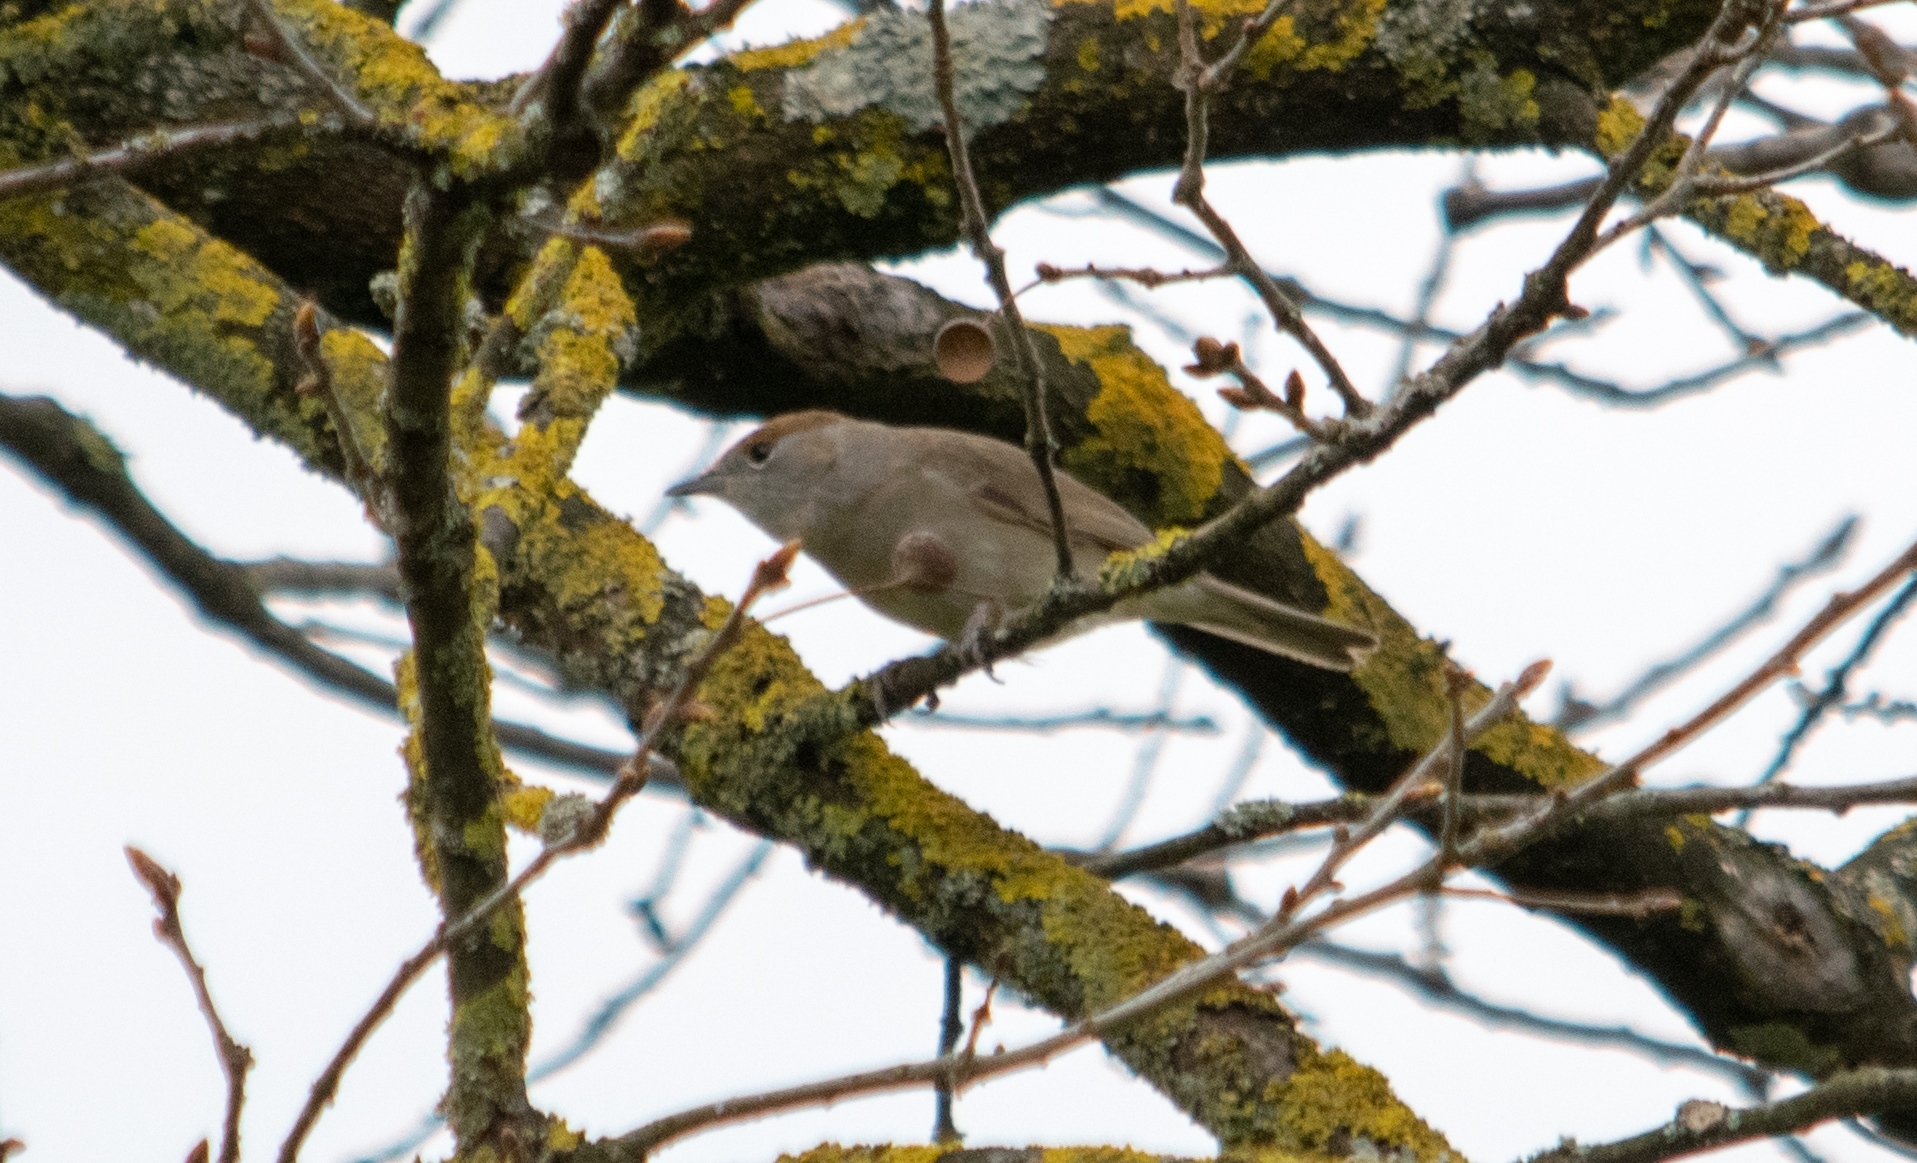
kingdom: Animalia
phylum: Chordata
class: Aves
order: Passeriformes
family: Sylviidae
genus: Sylvia
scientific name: Sylvia atricapilla
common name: Eurasian blackcap
